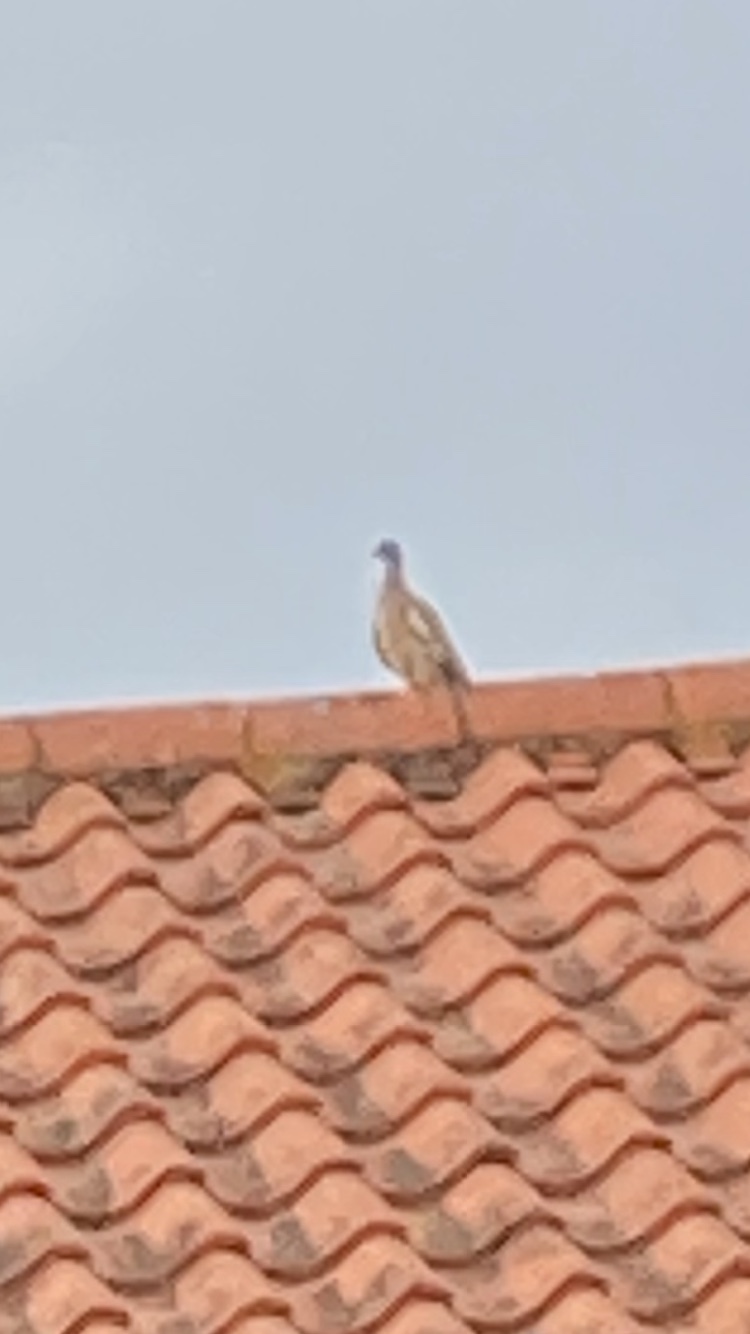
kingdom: Animalia
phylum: Chordata
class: Aves
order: Columbiformes
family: Columbidae
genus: Columba
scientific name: Columba palumbus
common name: Common wood pigeon
